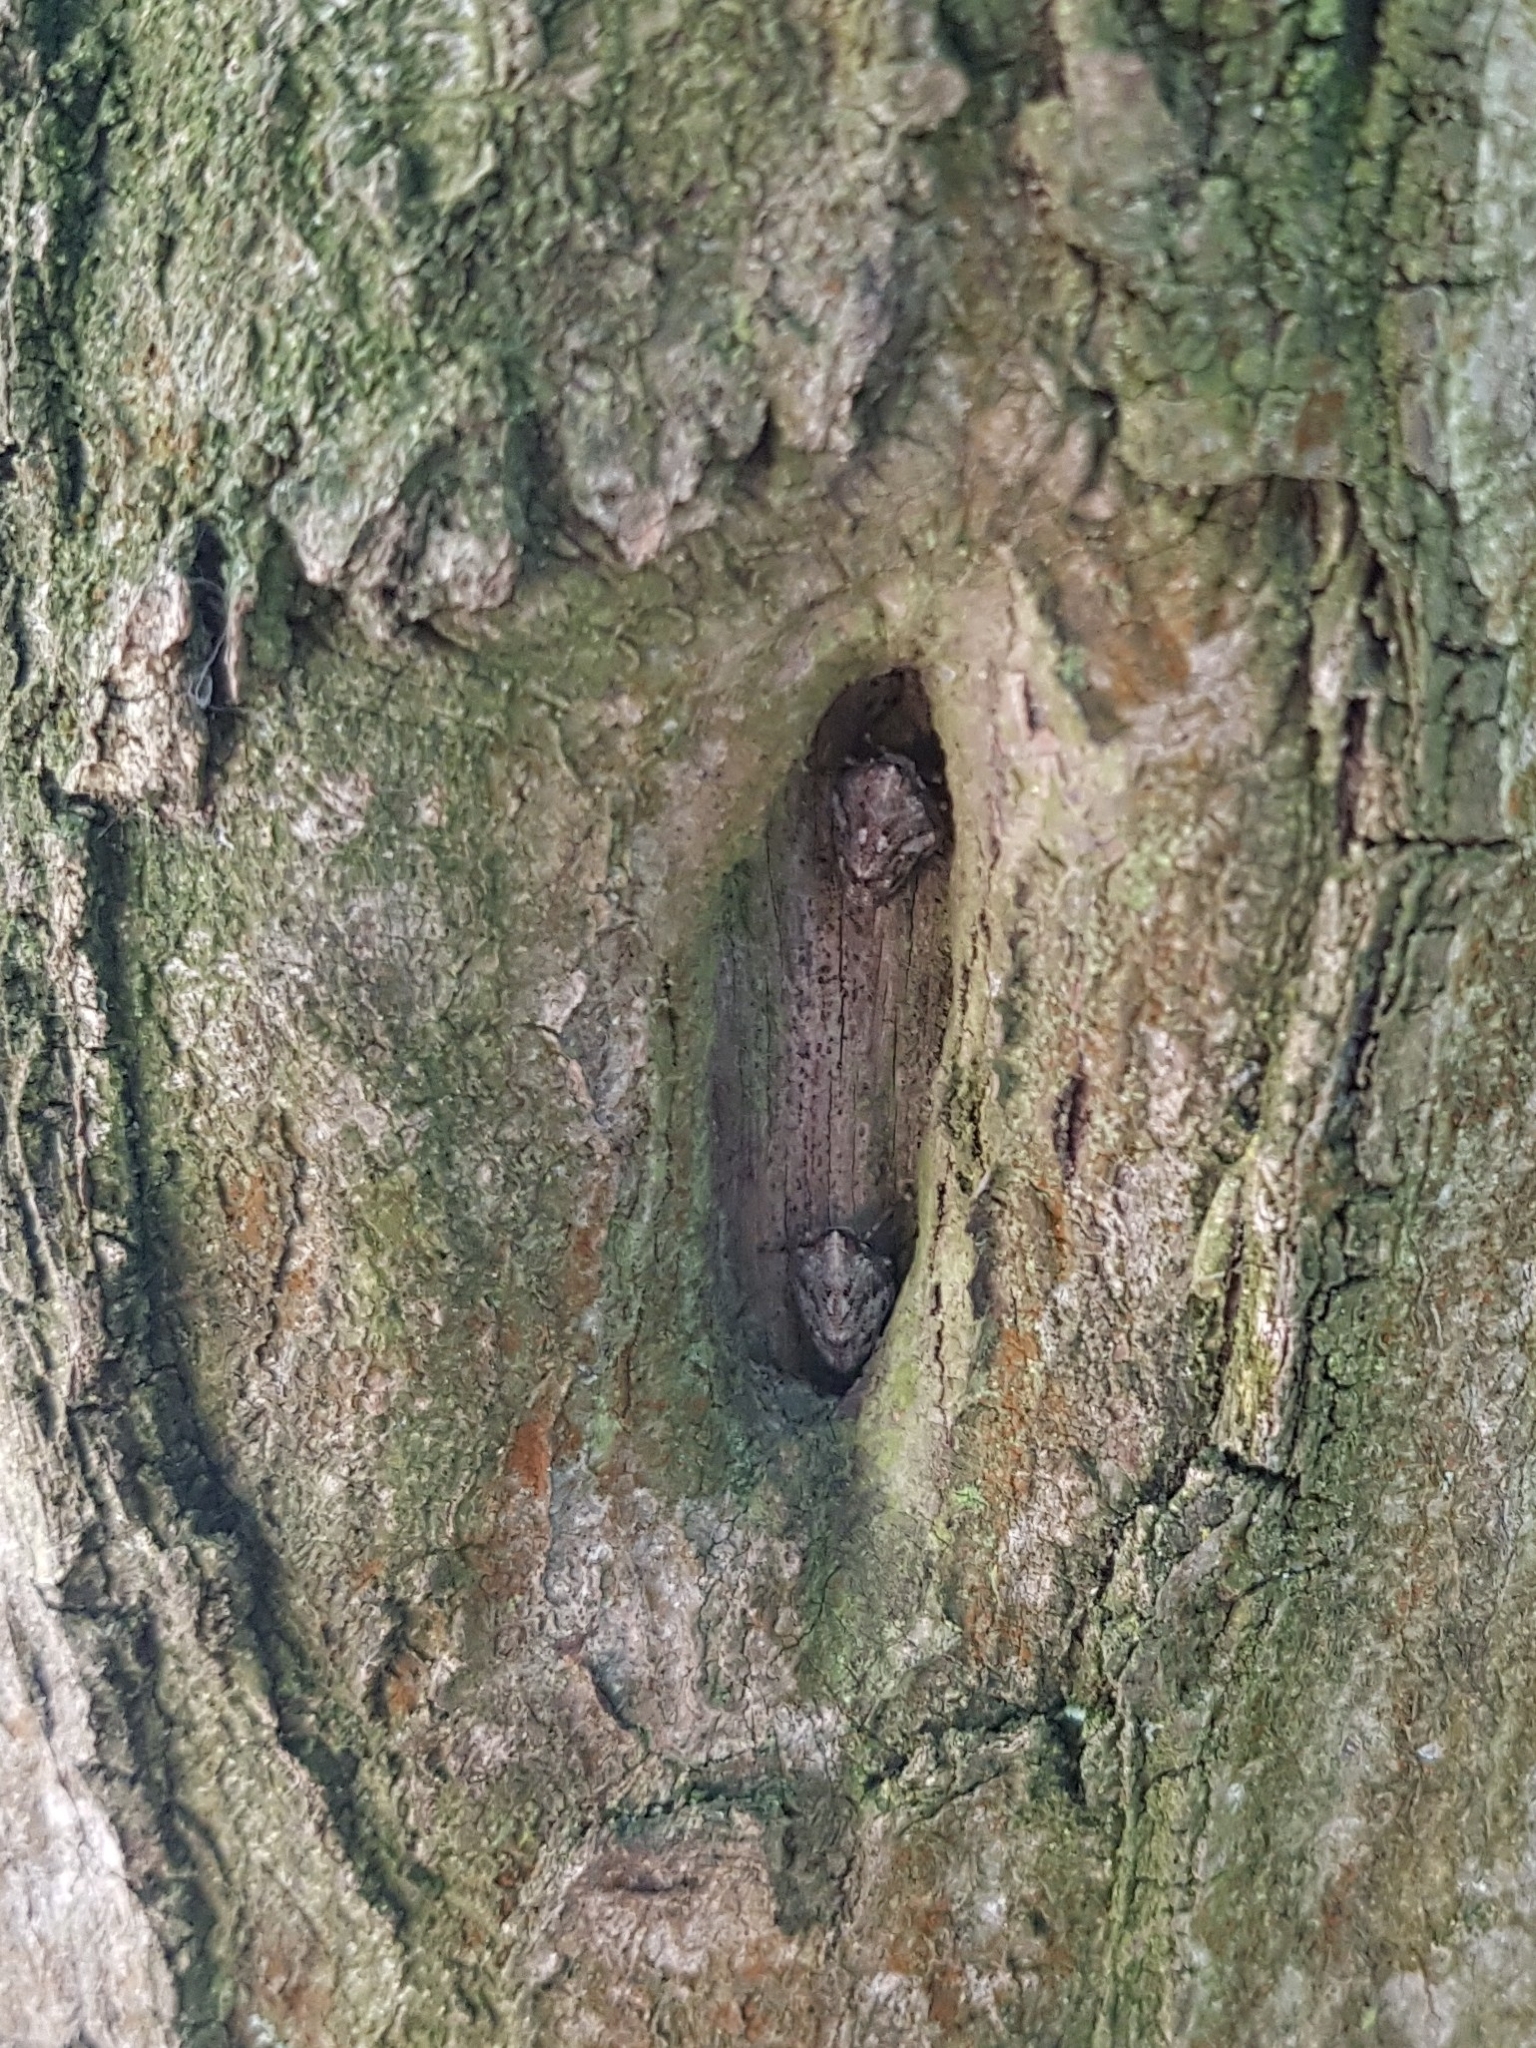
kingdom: Animalia
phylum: Arthropoda
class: Insecta
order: Hemiptera
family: Issidae
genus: Issus
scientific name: Issus coleoptratus
